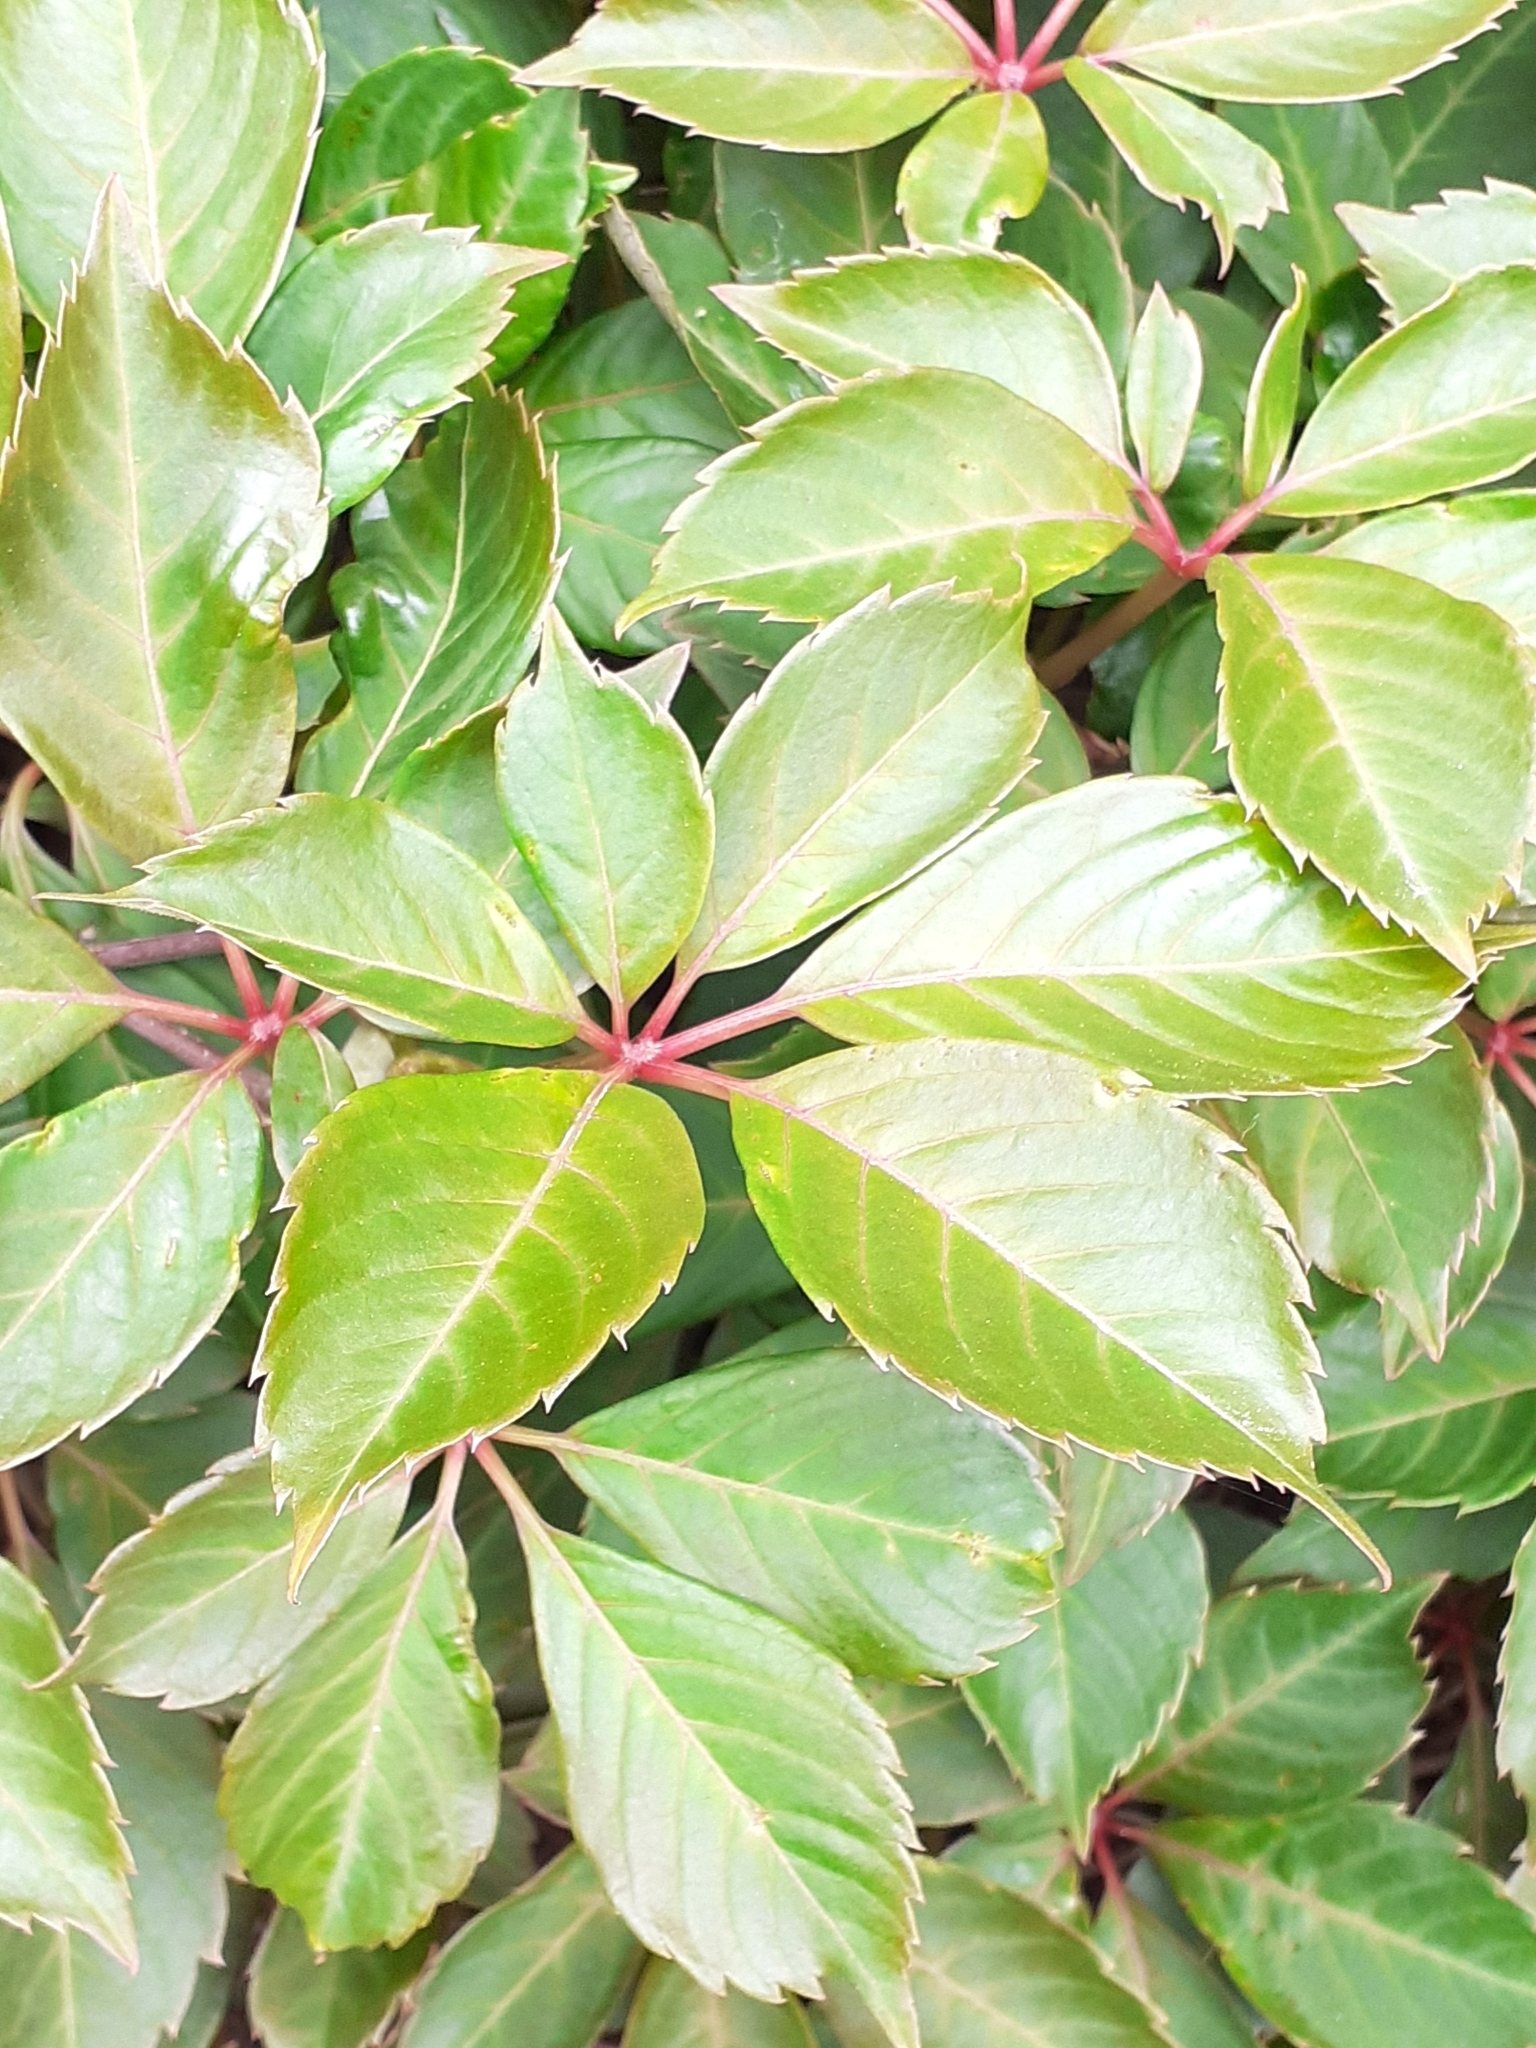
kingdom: Plantae
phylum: Tracheophyta
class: Magnoliopsida
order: Vitales
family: Vitaceae
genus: Parthenocissus
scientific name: Parthenocissus quinquefolia
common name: Virginia-creeper
